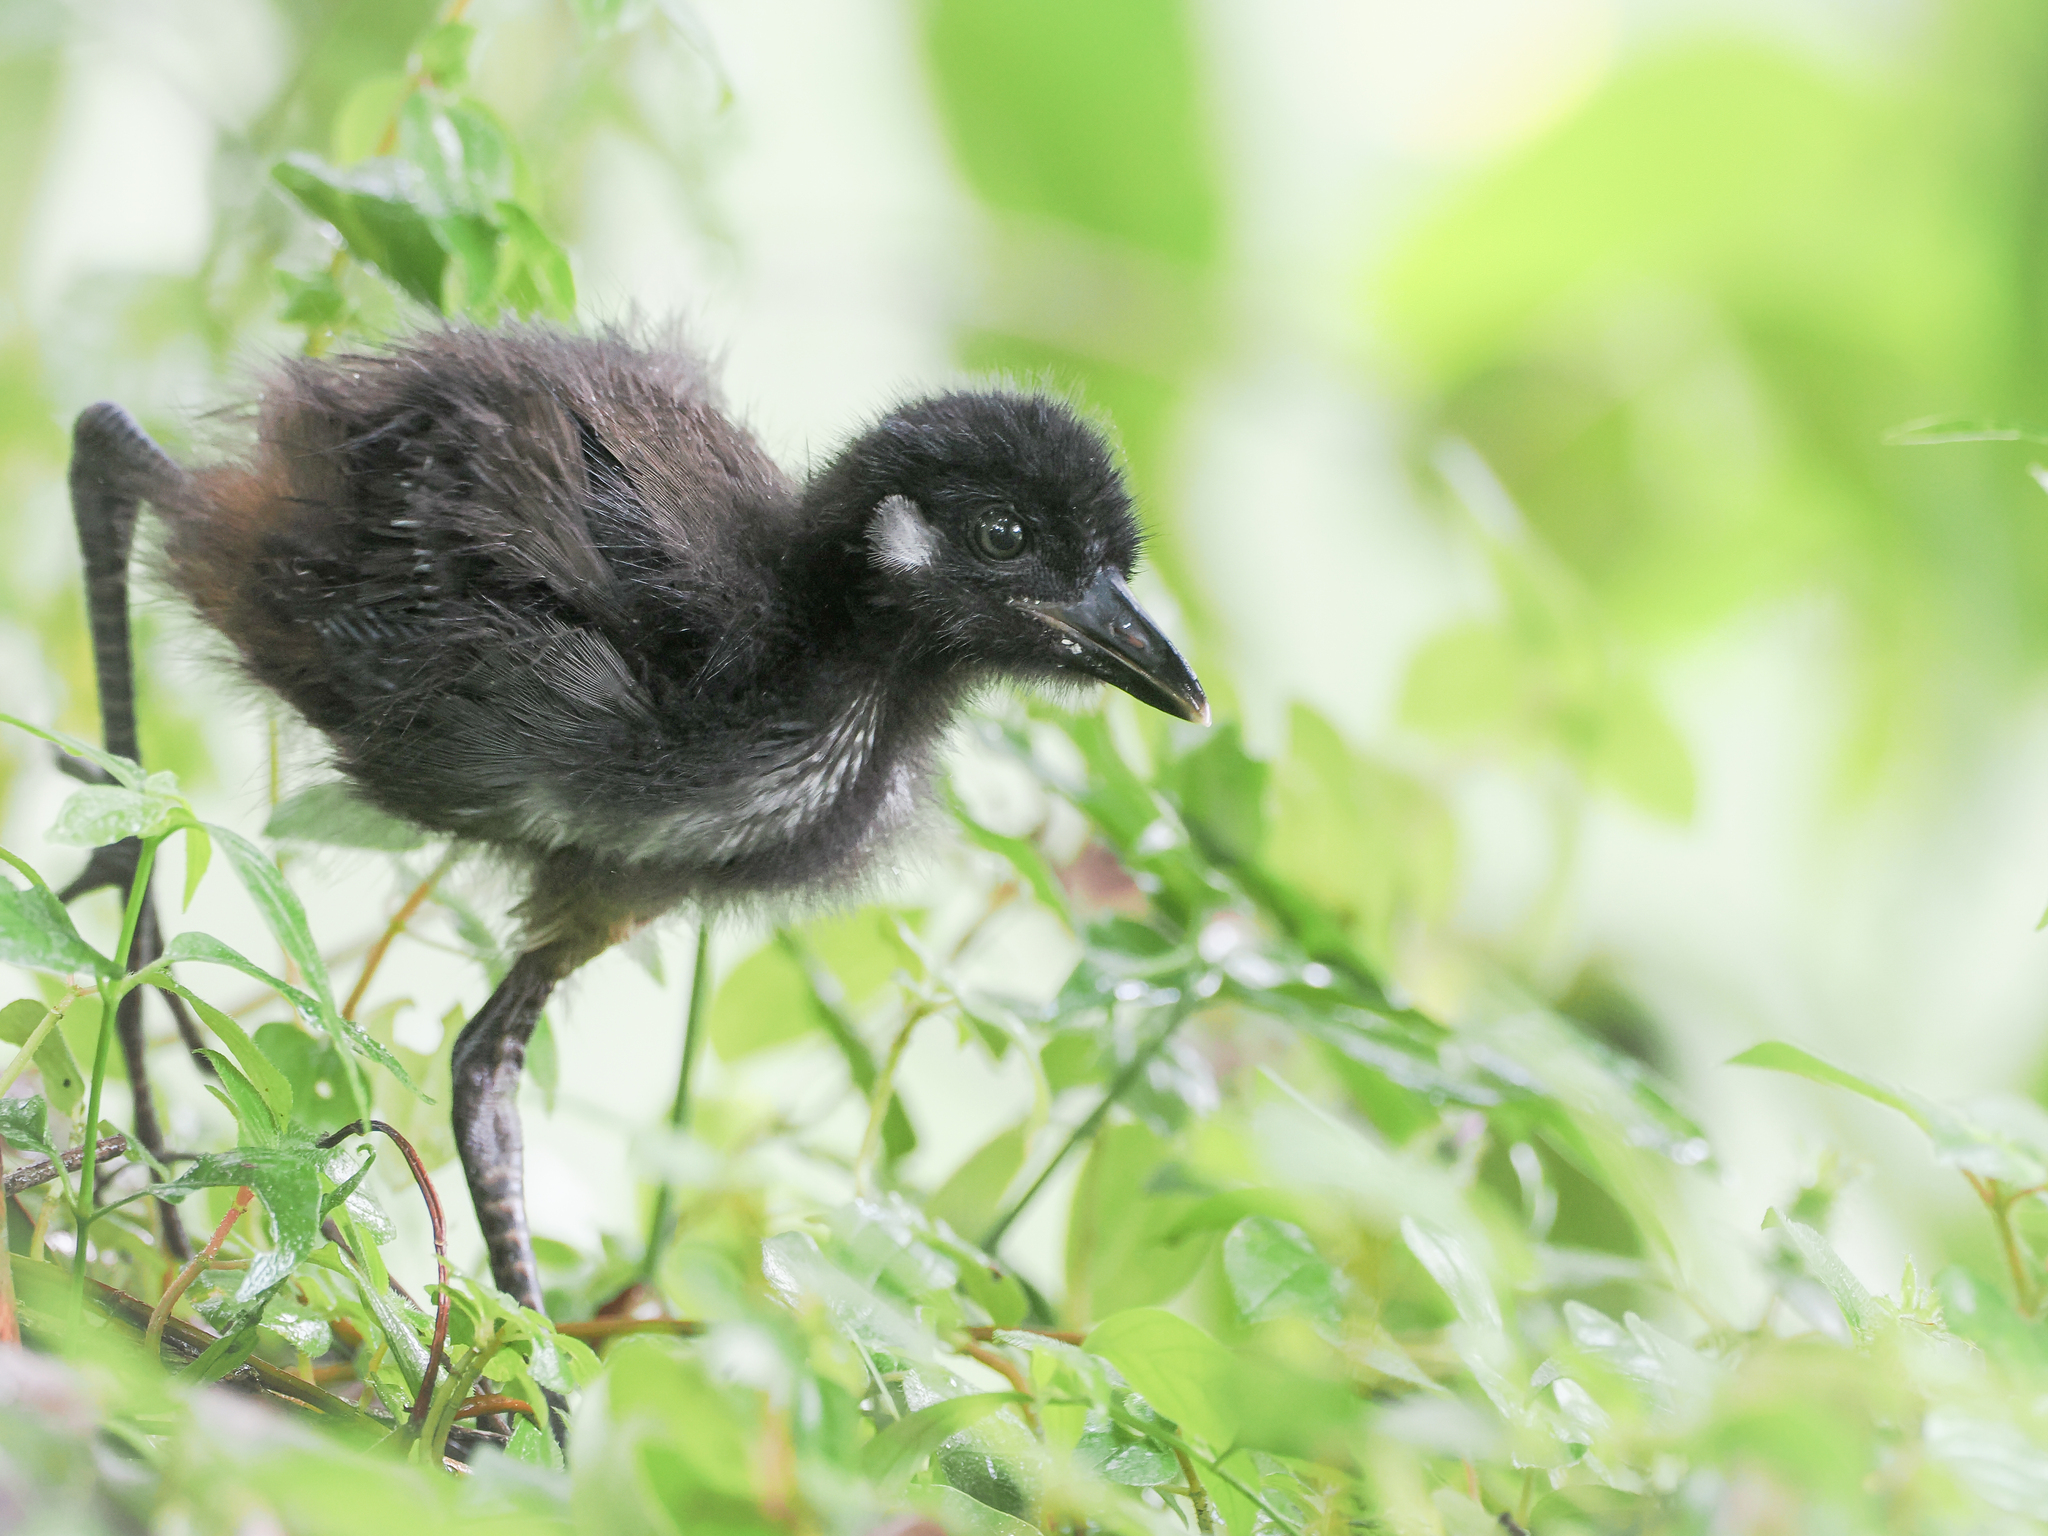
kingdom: Animalia
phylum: Chordata
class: Aves
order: Gruiformes
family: Rallidae
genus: Amaurornis
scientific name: Amaurornis phoenicurus
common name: White-breasted waterhen
